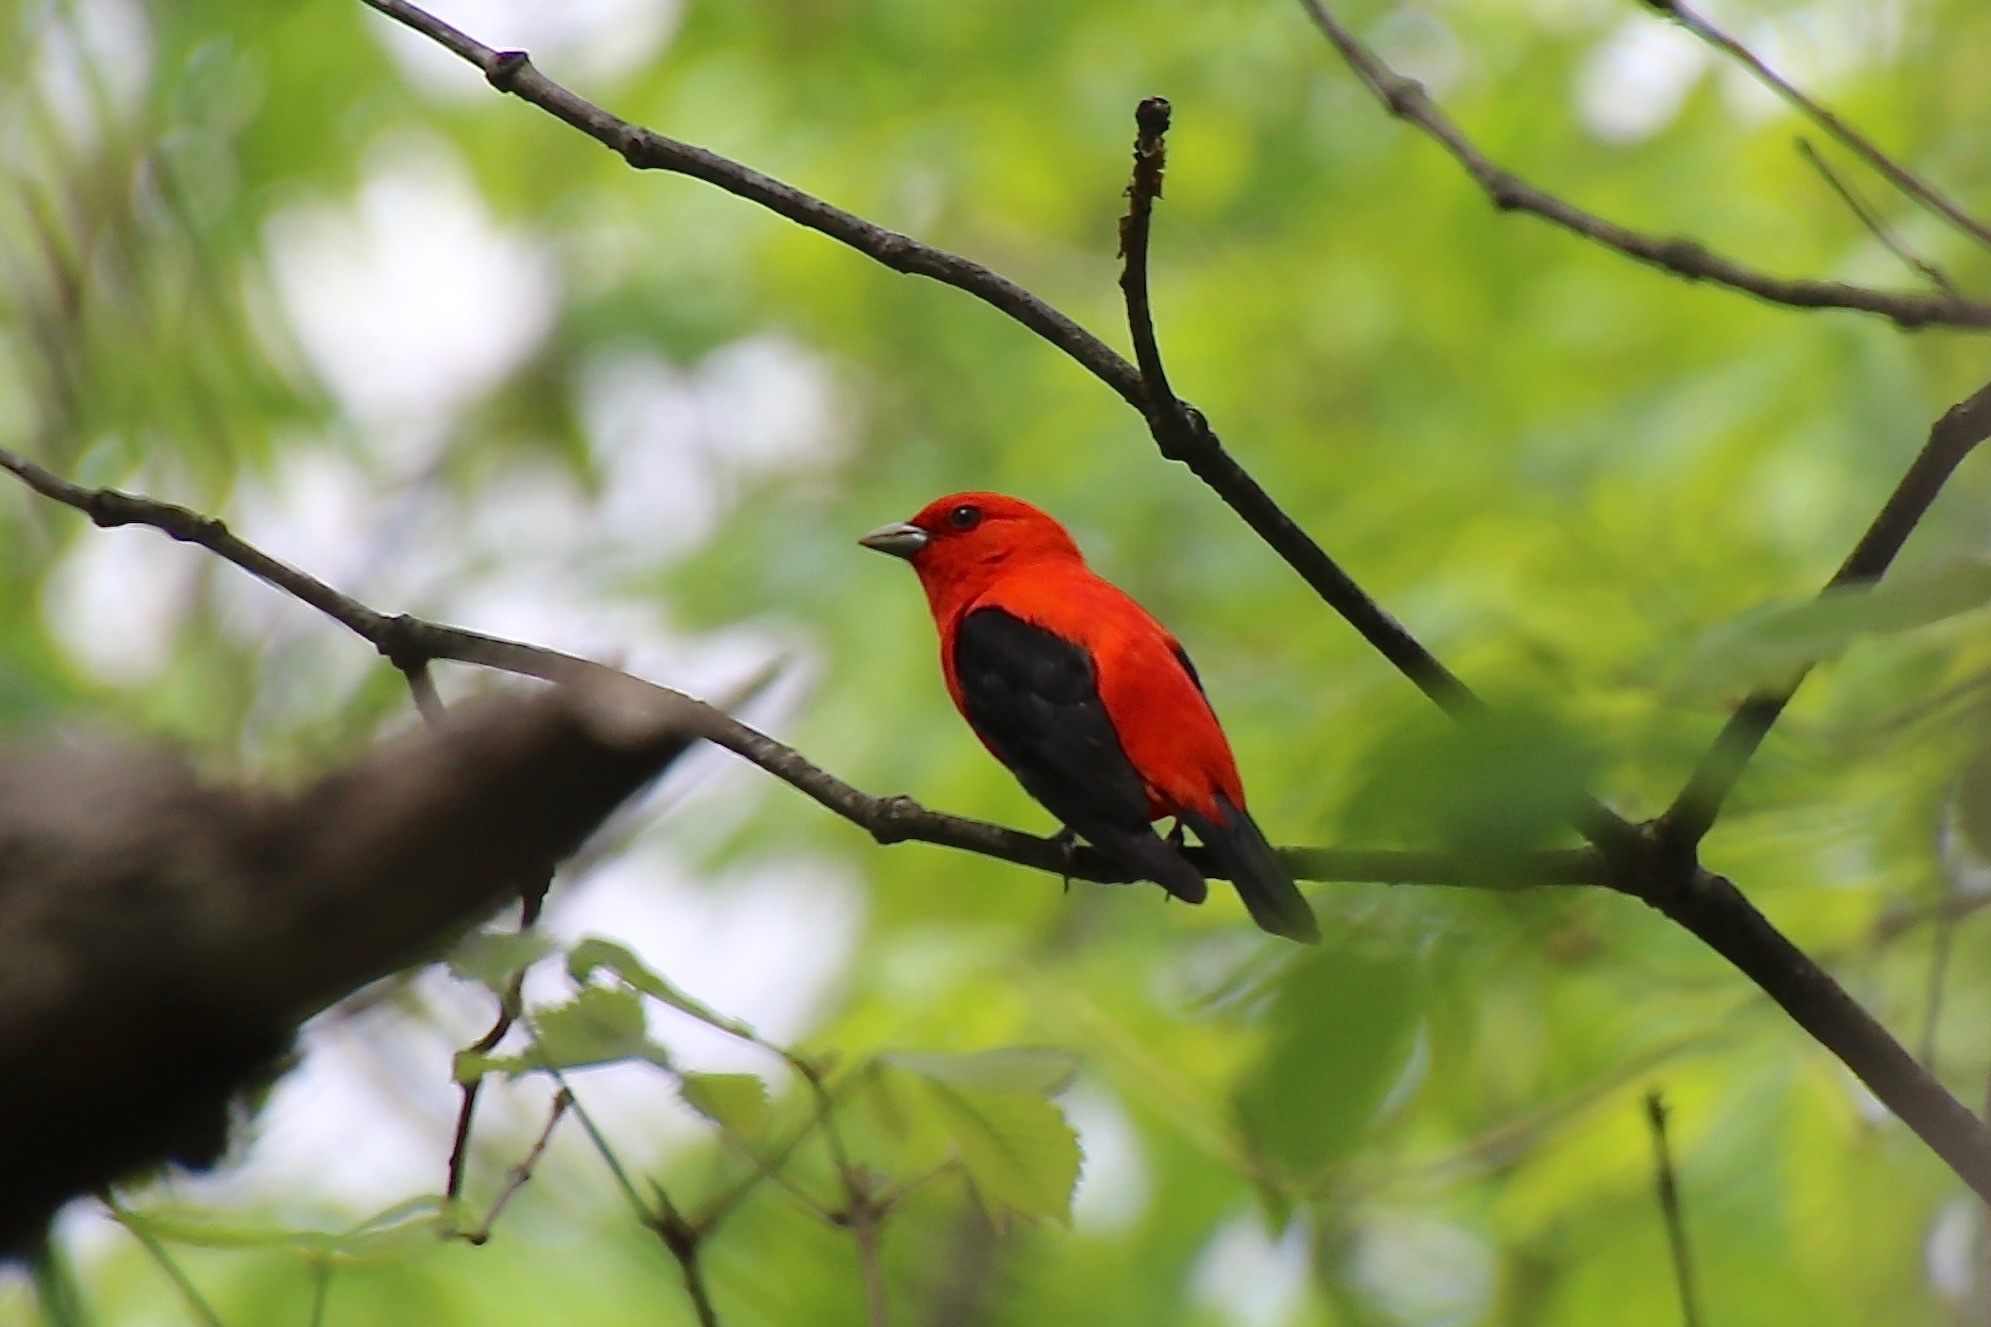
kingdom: Animalia
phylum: Chordata
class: Aves
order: Passeriformes
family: Cardinalidae
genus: Piranga
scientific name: Piranga olivacea
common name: Scarlet tanager
